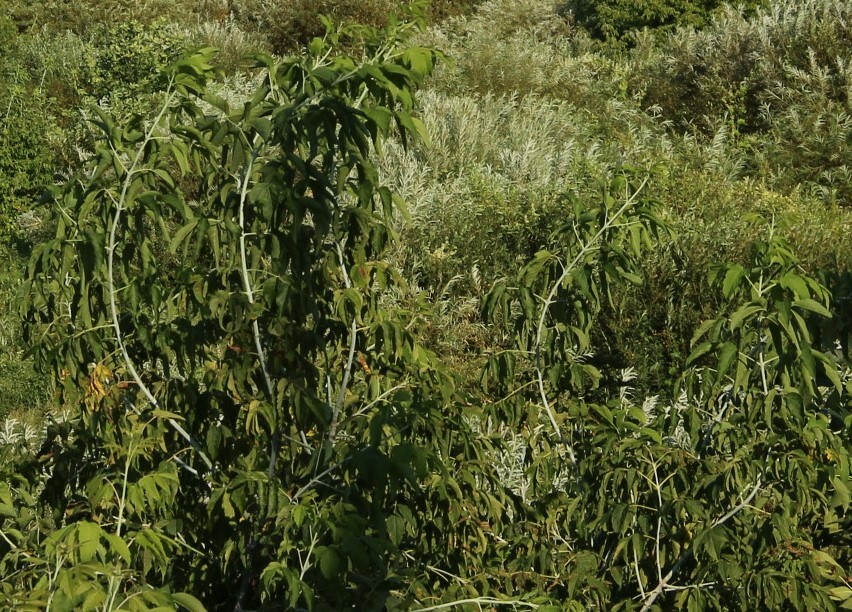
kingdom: Plantae
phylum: Tracheophyta
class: Magnoliopsida
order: Sapindales
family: Sapindaceae
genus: Acer
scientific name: Acer negundo
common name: Ashleaf maple
